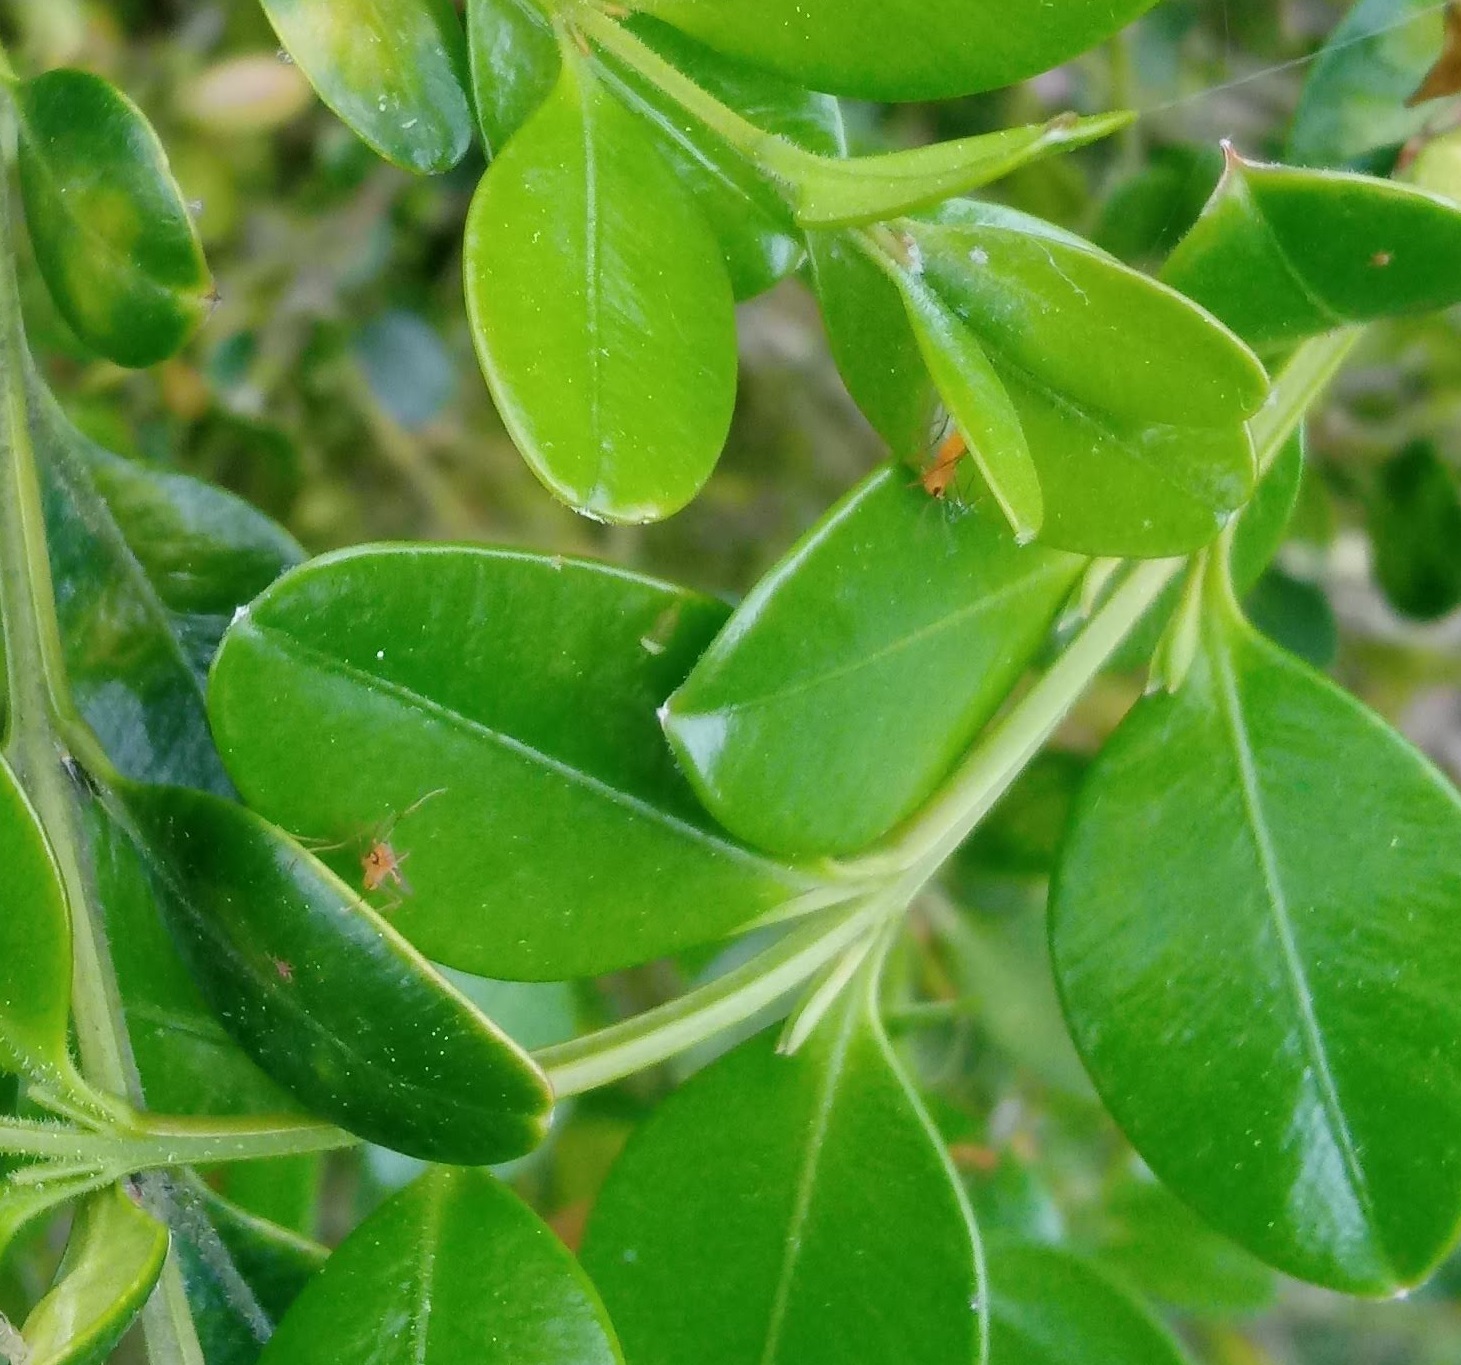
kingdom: Animalia
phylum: Arthropoda
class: Insecta
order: Diptera
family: Cecidomyiidae
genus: Monarthropalpus
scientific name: Monarthropalpus flavus
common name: Boxwood leafminer
